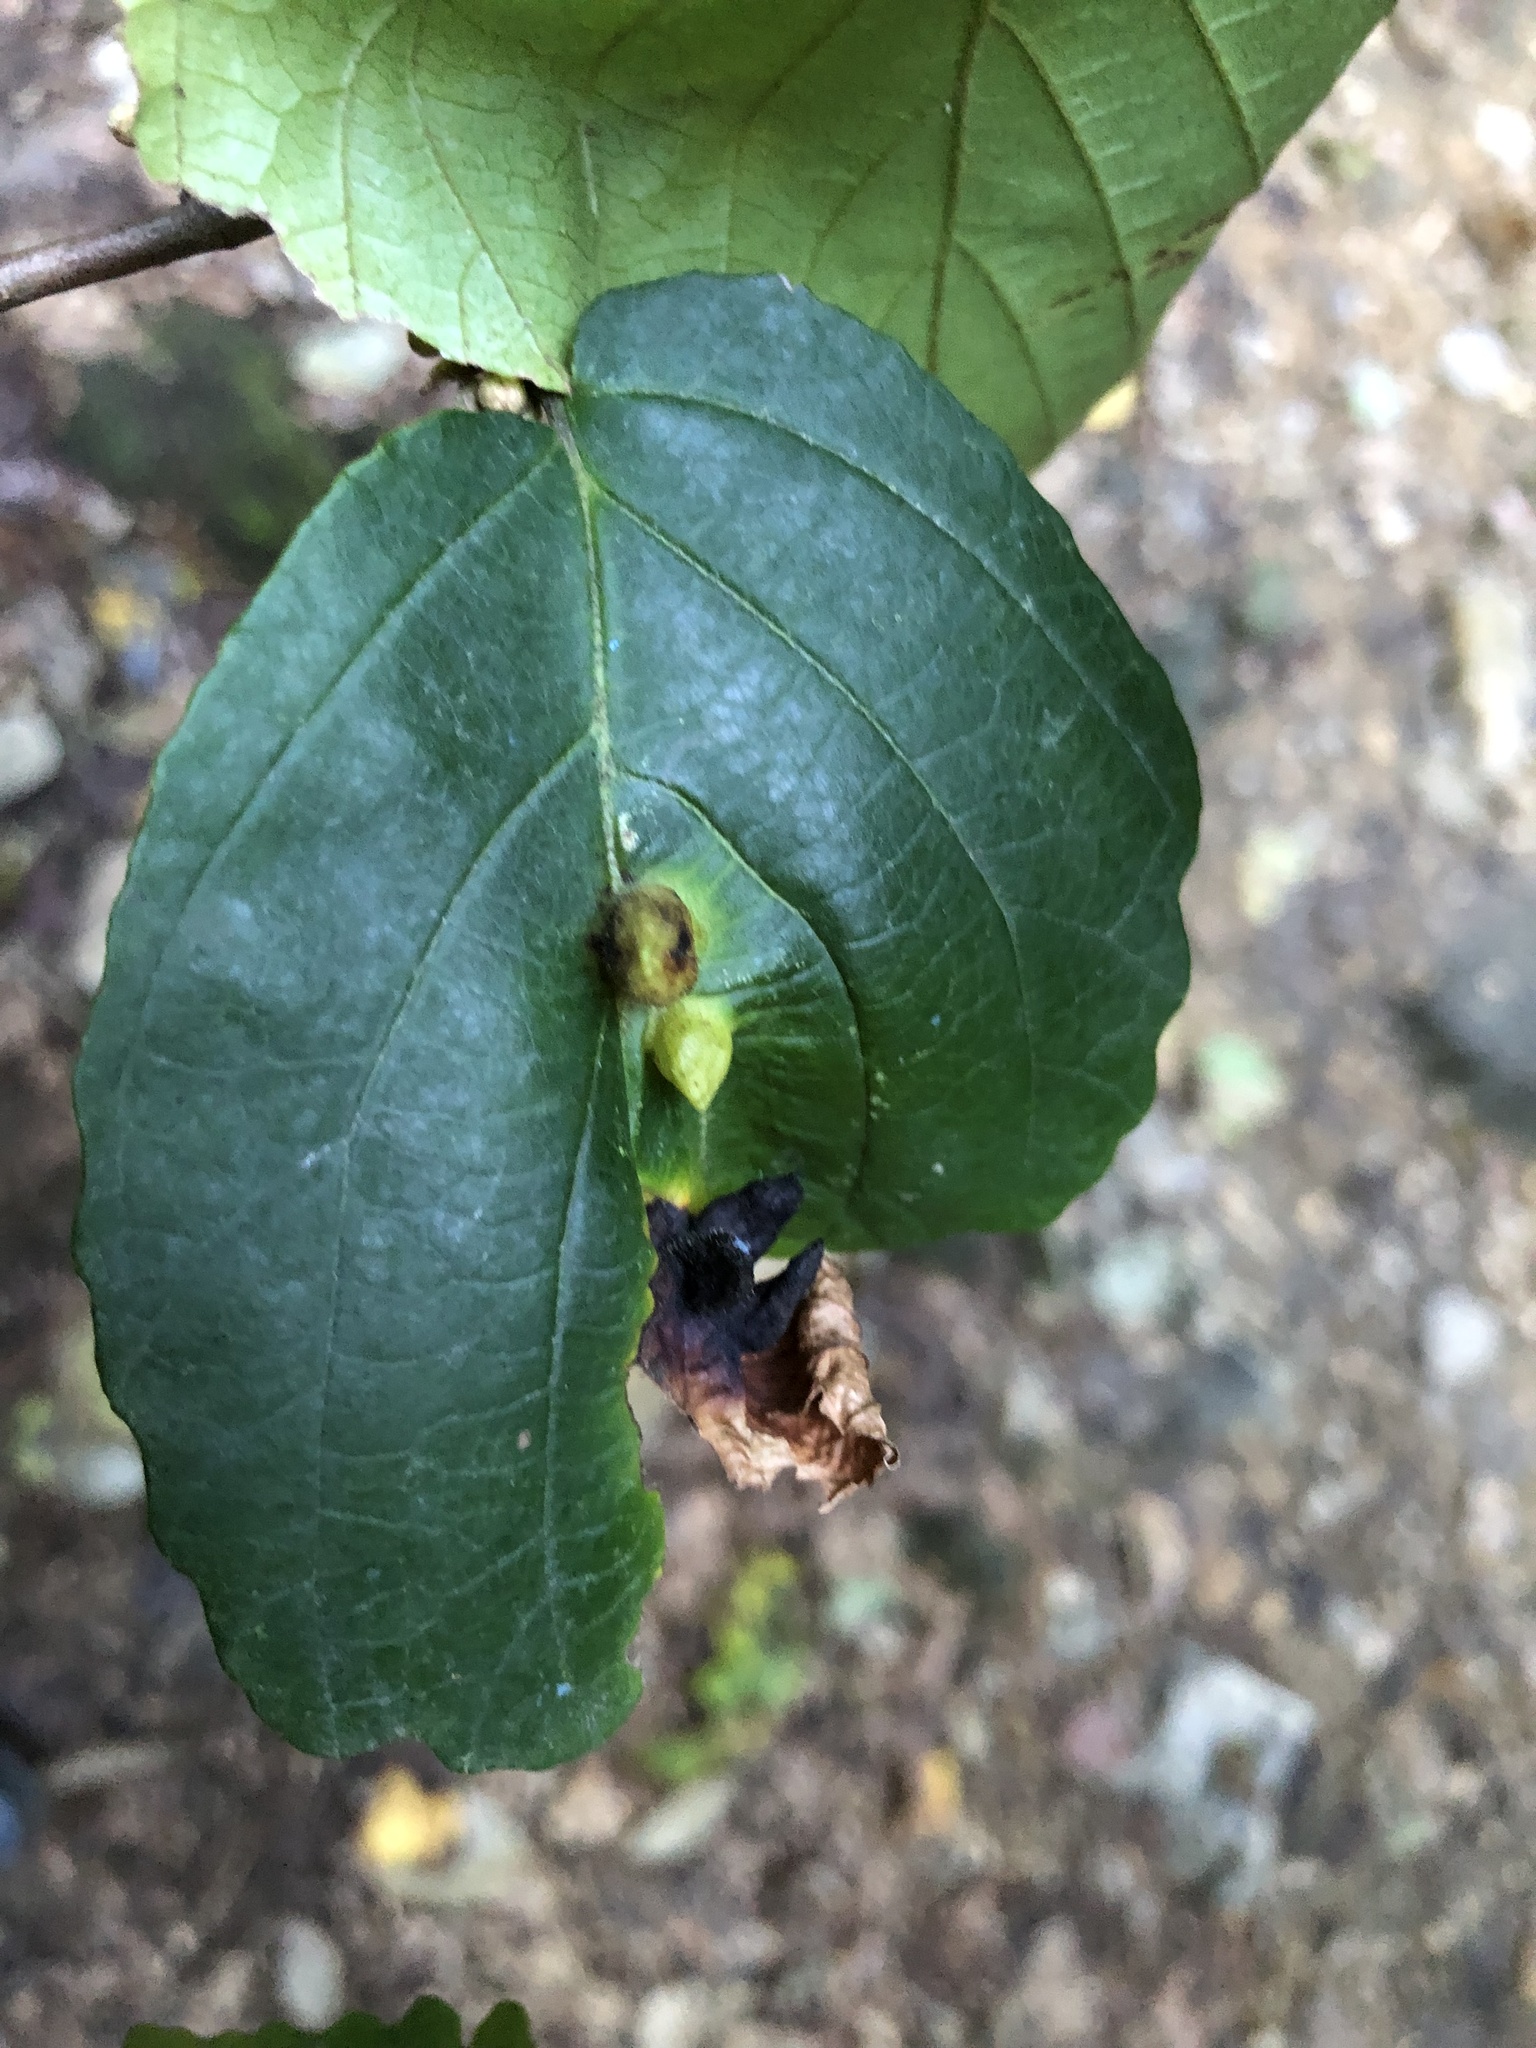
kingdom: Animalia
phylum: Arthropoda
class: Insecta
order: Hemiptera
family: Aphididae
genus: Hormaphis
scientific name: Hormaphis hamamelidis
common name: Witch-hazel cone gall aphid
